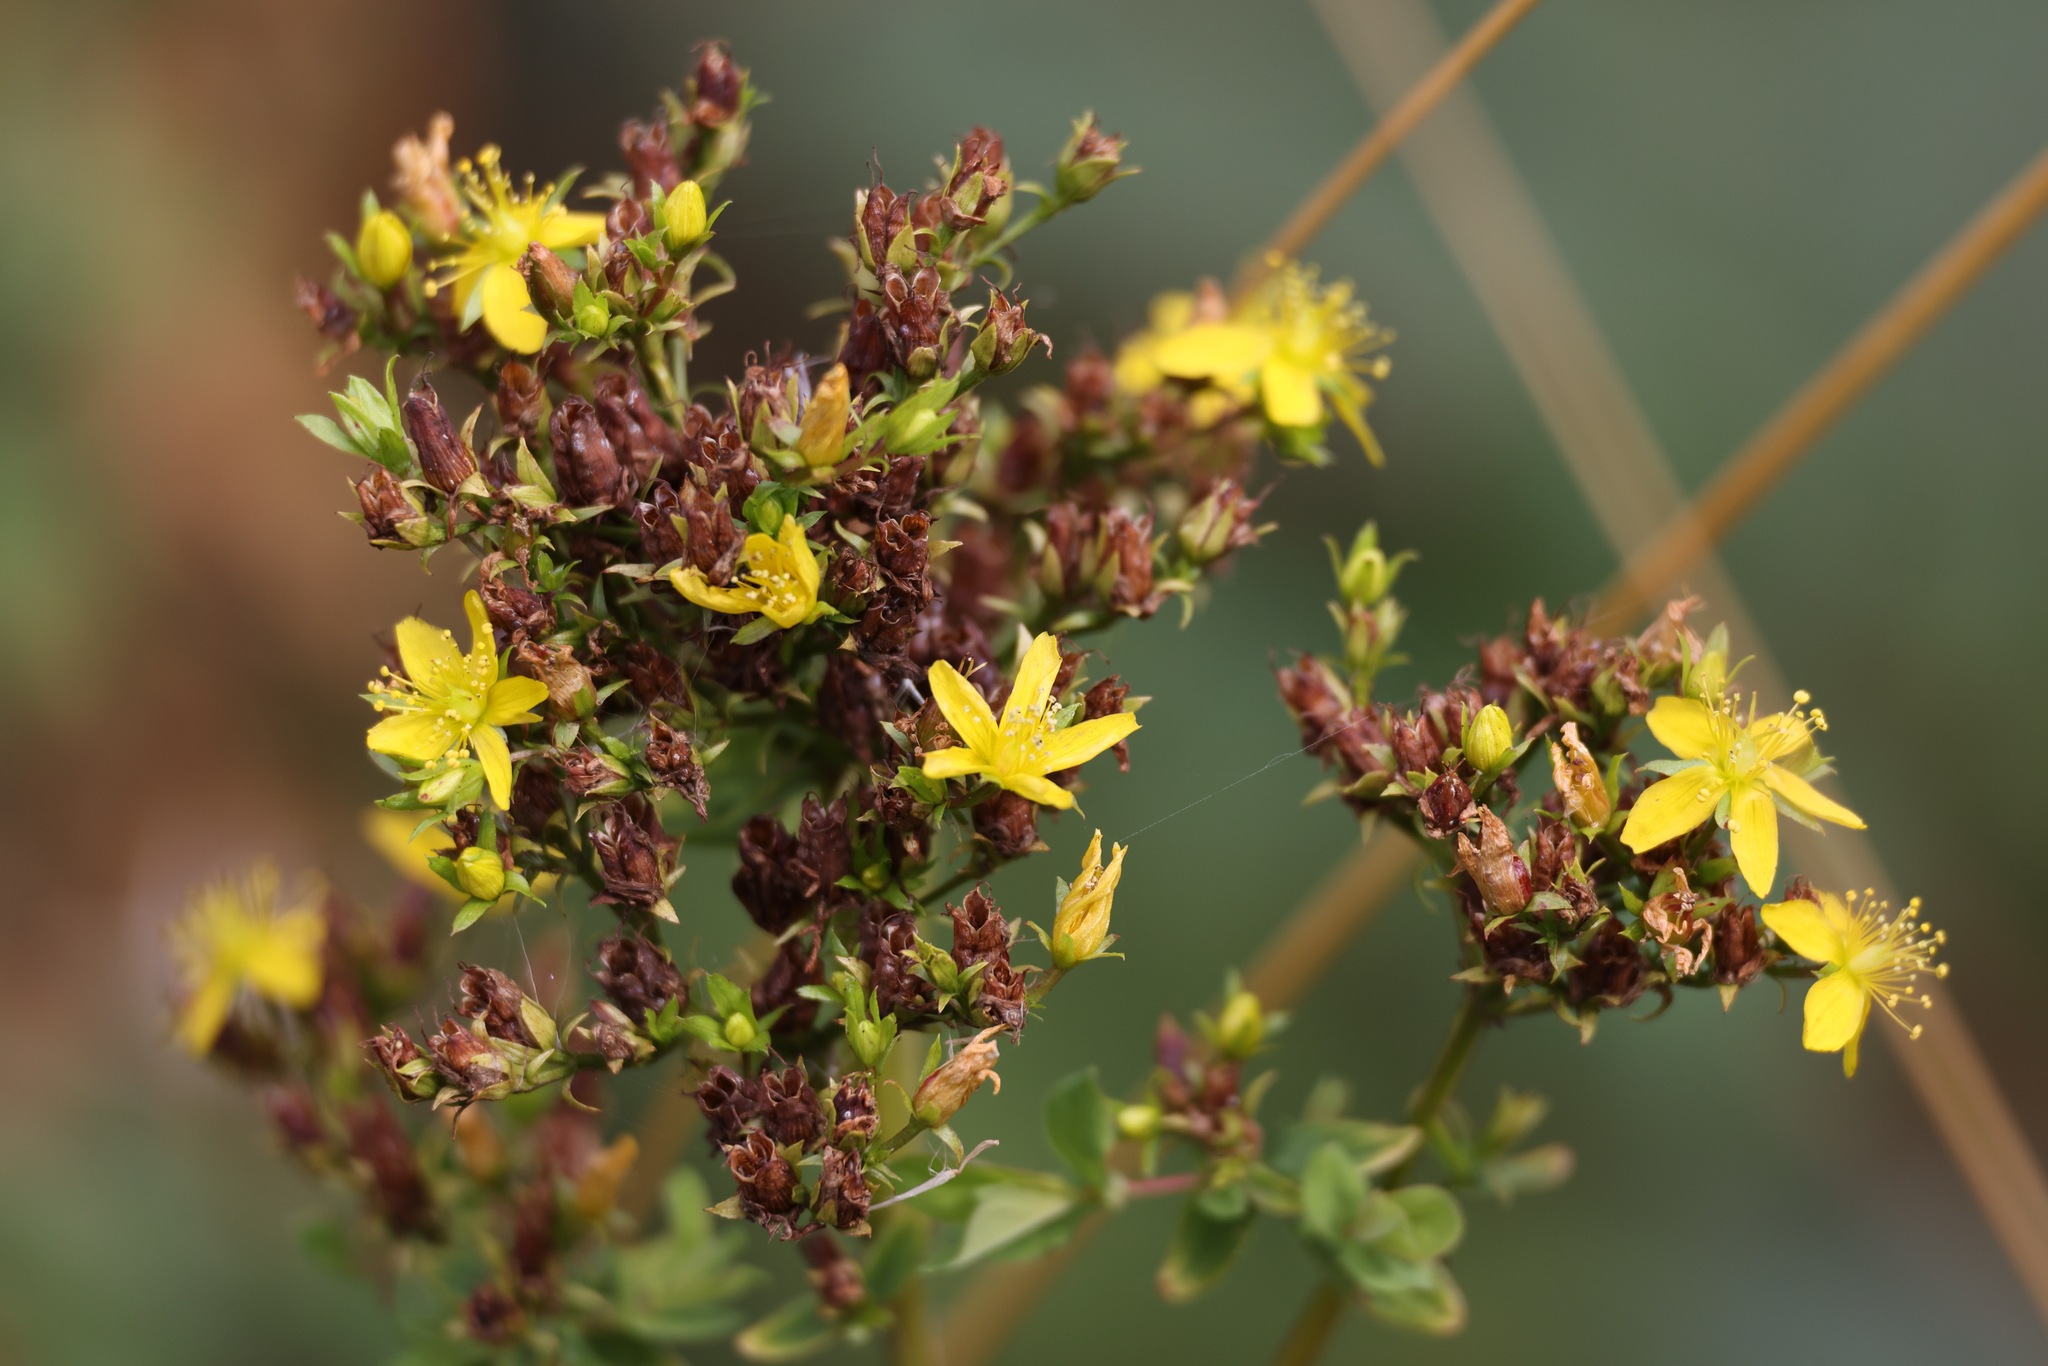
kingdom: Plantae
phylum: Tracheophyta
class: Magnoliopsida
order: Malpighiales
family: Hypericaceae
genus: Hypericum
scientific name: Hypericum tetrapterum
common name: Square-stalked st. john's-wort
